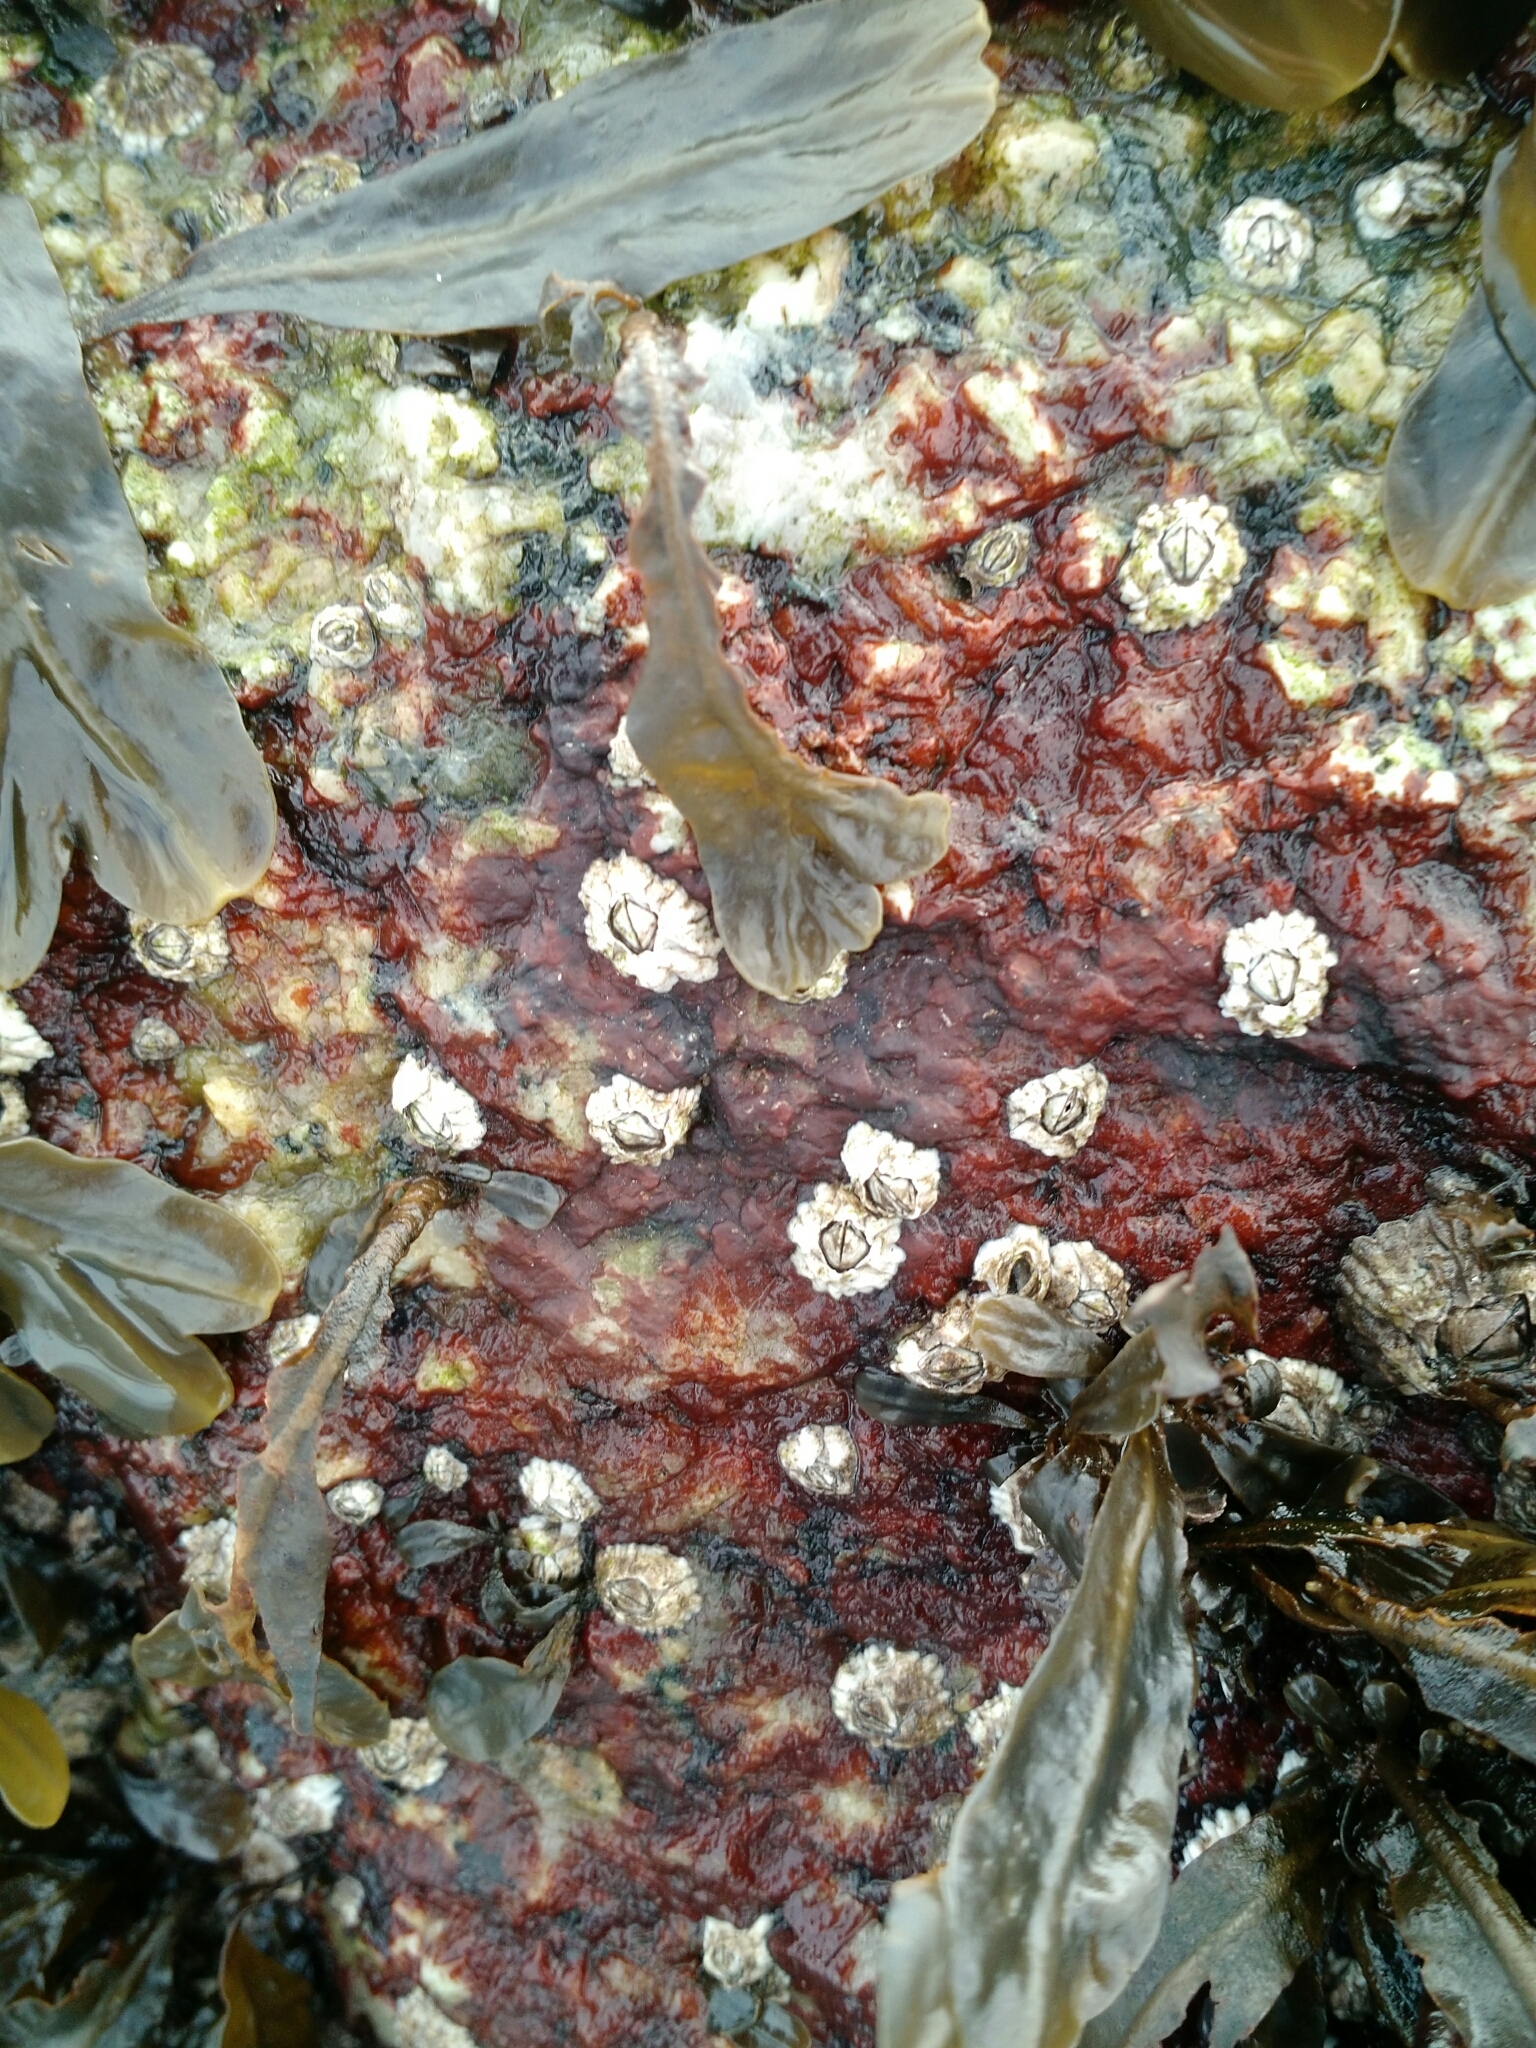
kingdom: Animalia
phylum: Arthropoda
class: Maxillopoda
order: Sessilia
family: Archaeobalanidae
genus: Semibalanus
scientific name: Semibalanus balanoides
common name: Acorn barnacle
